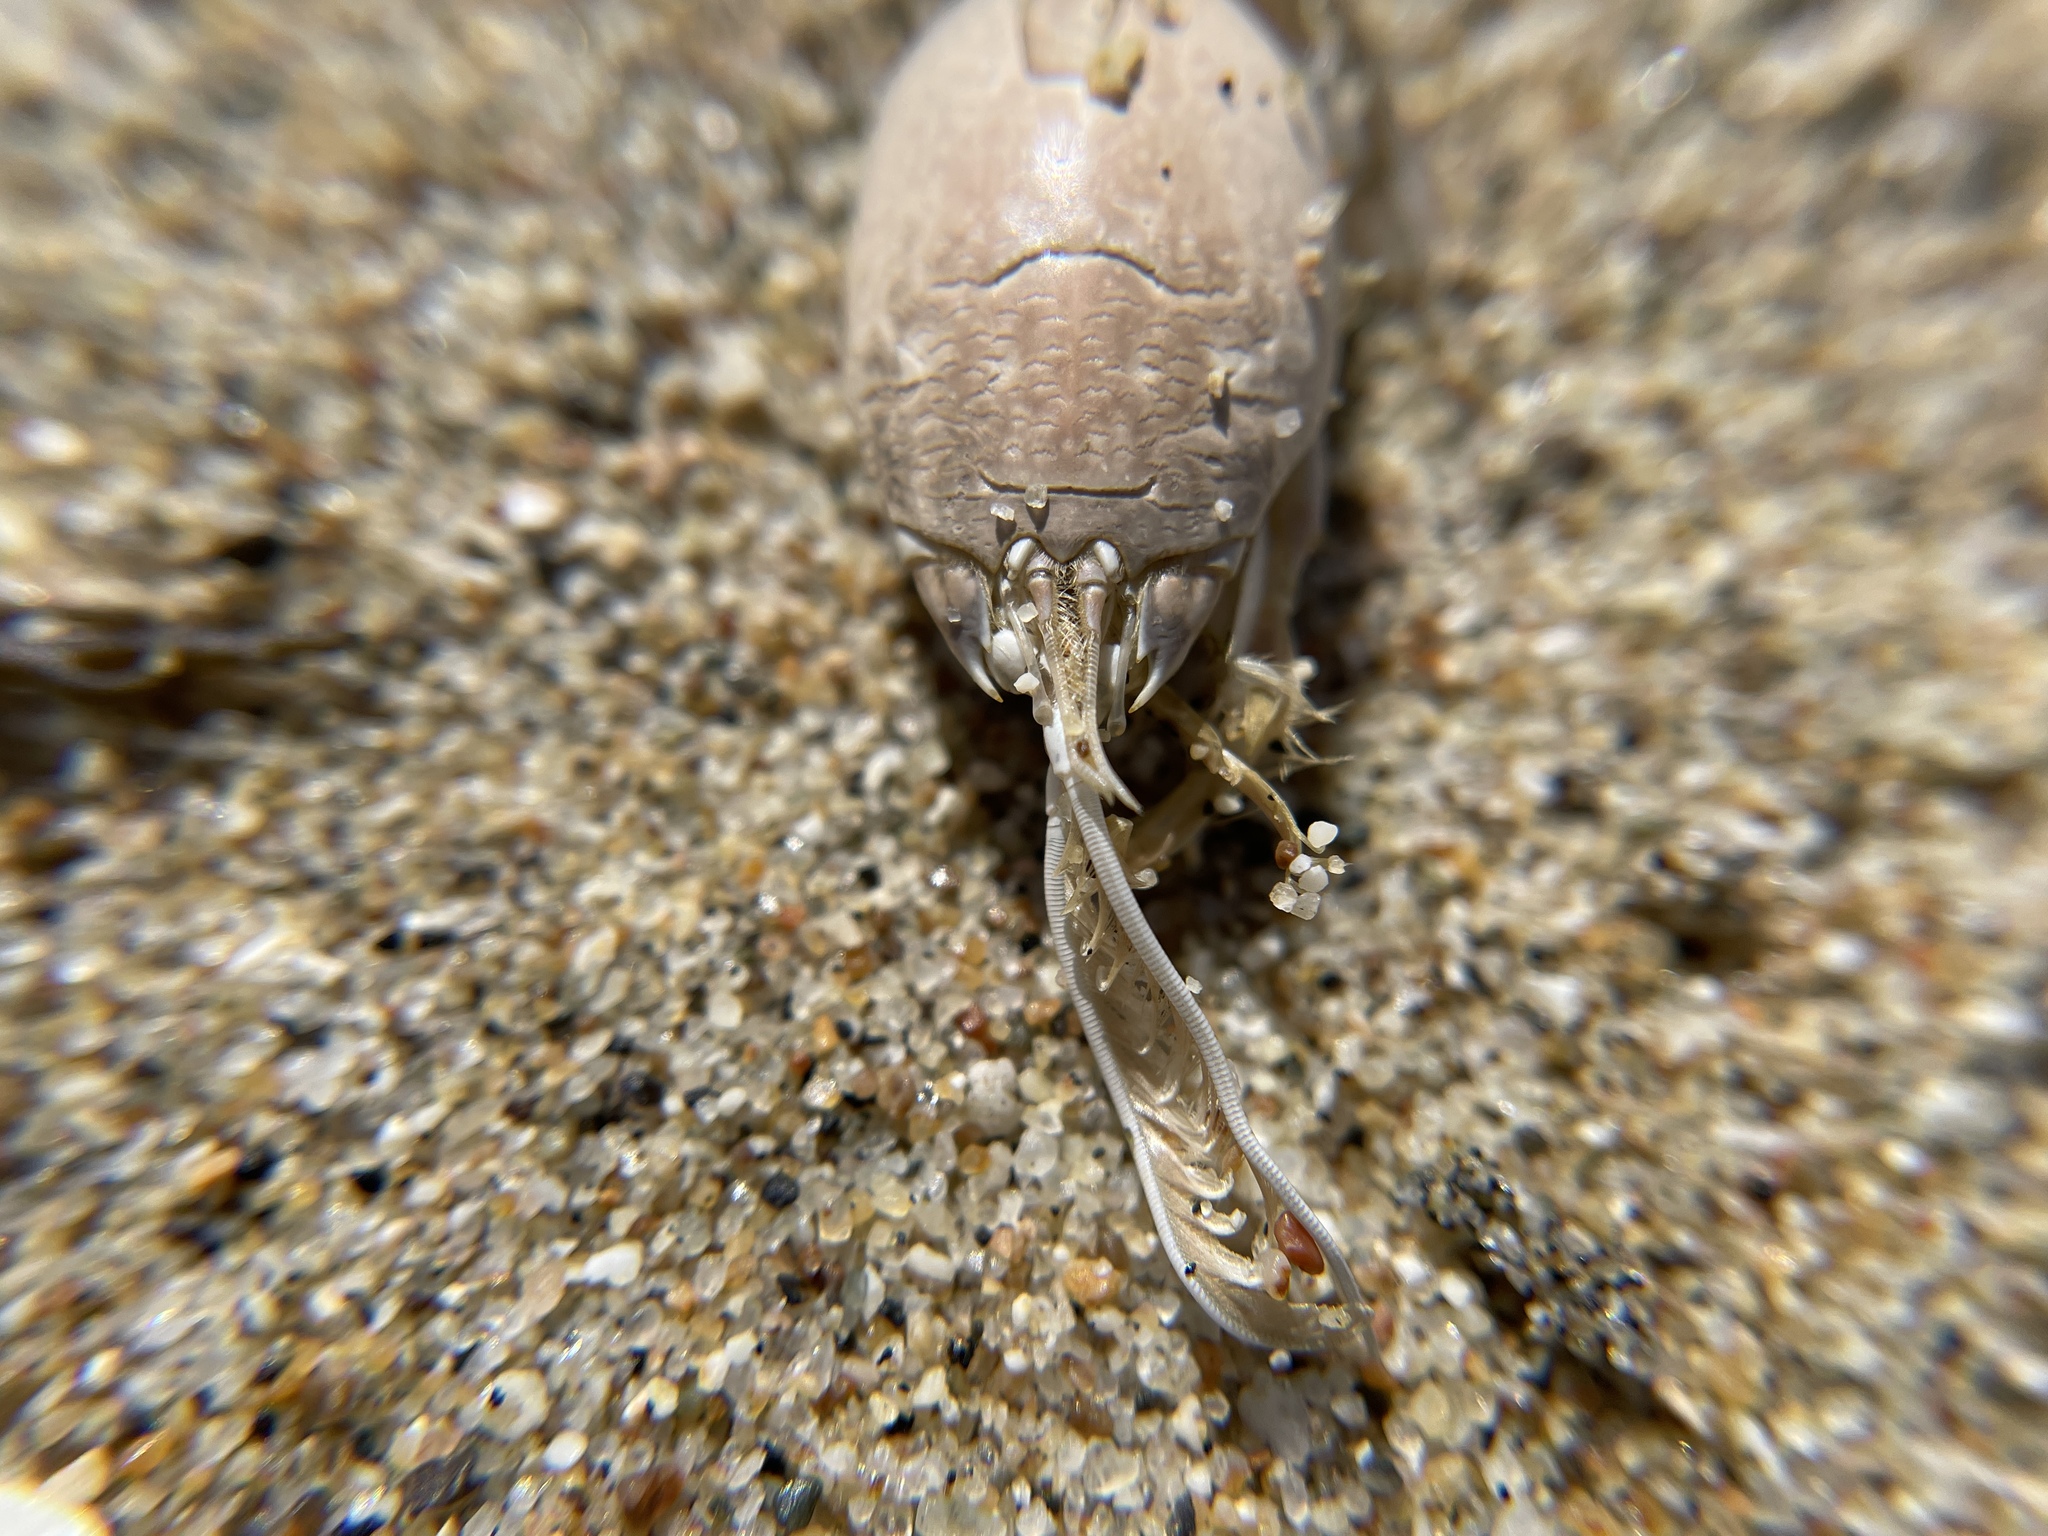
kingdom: Animalia
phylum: Arthropoda
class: Malacostraca
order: Decapoda
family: Hippidae
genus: Emerita
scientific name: Emerita analoga
